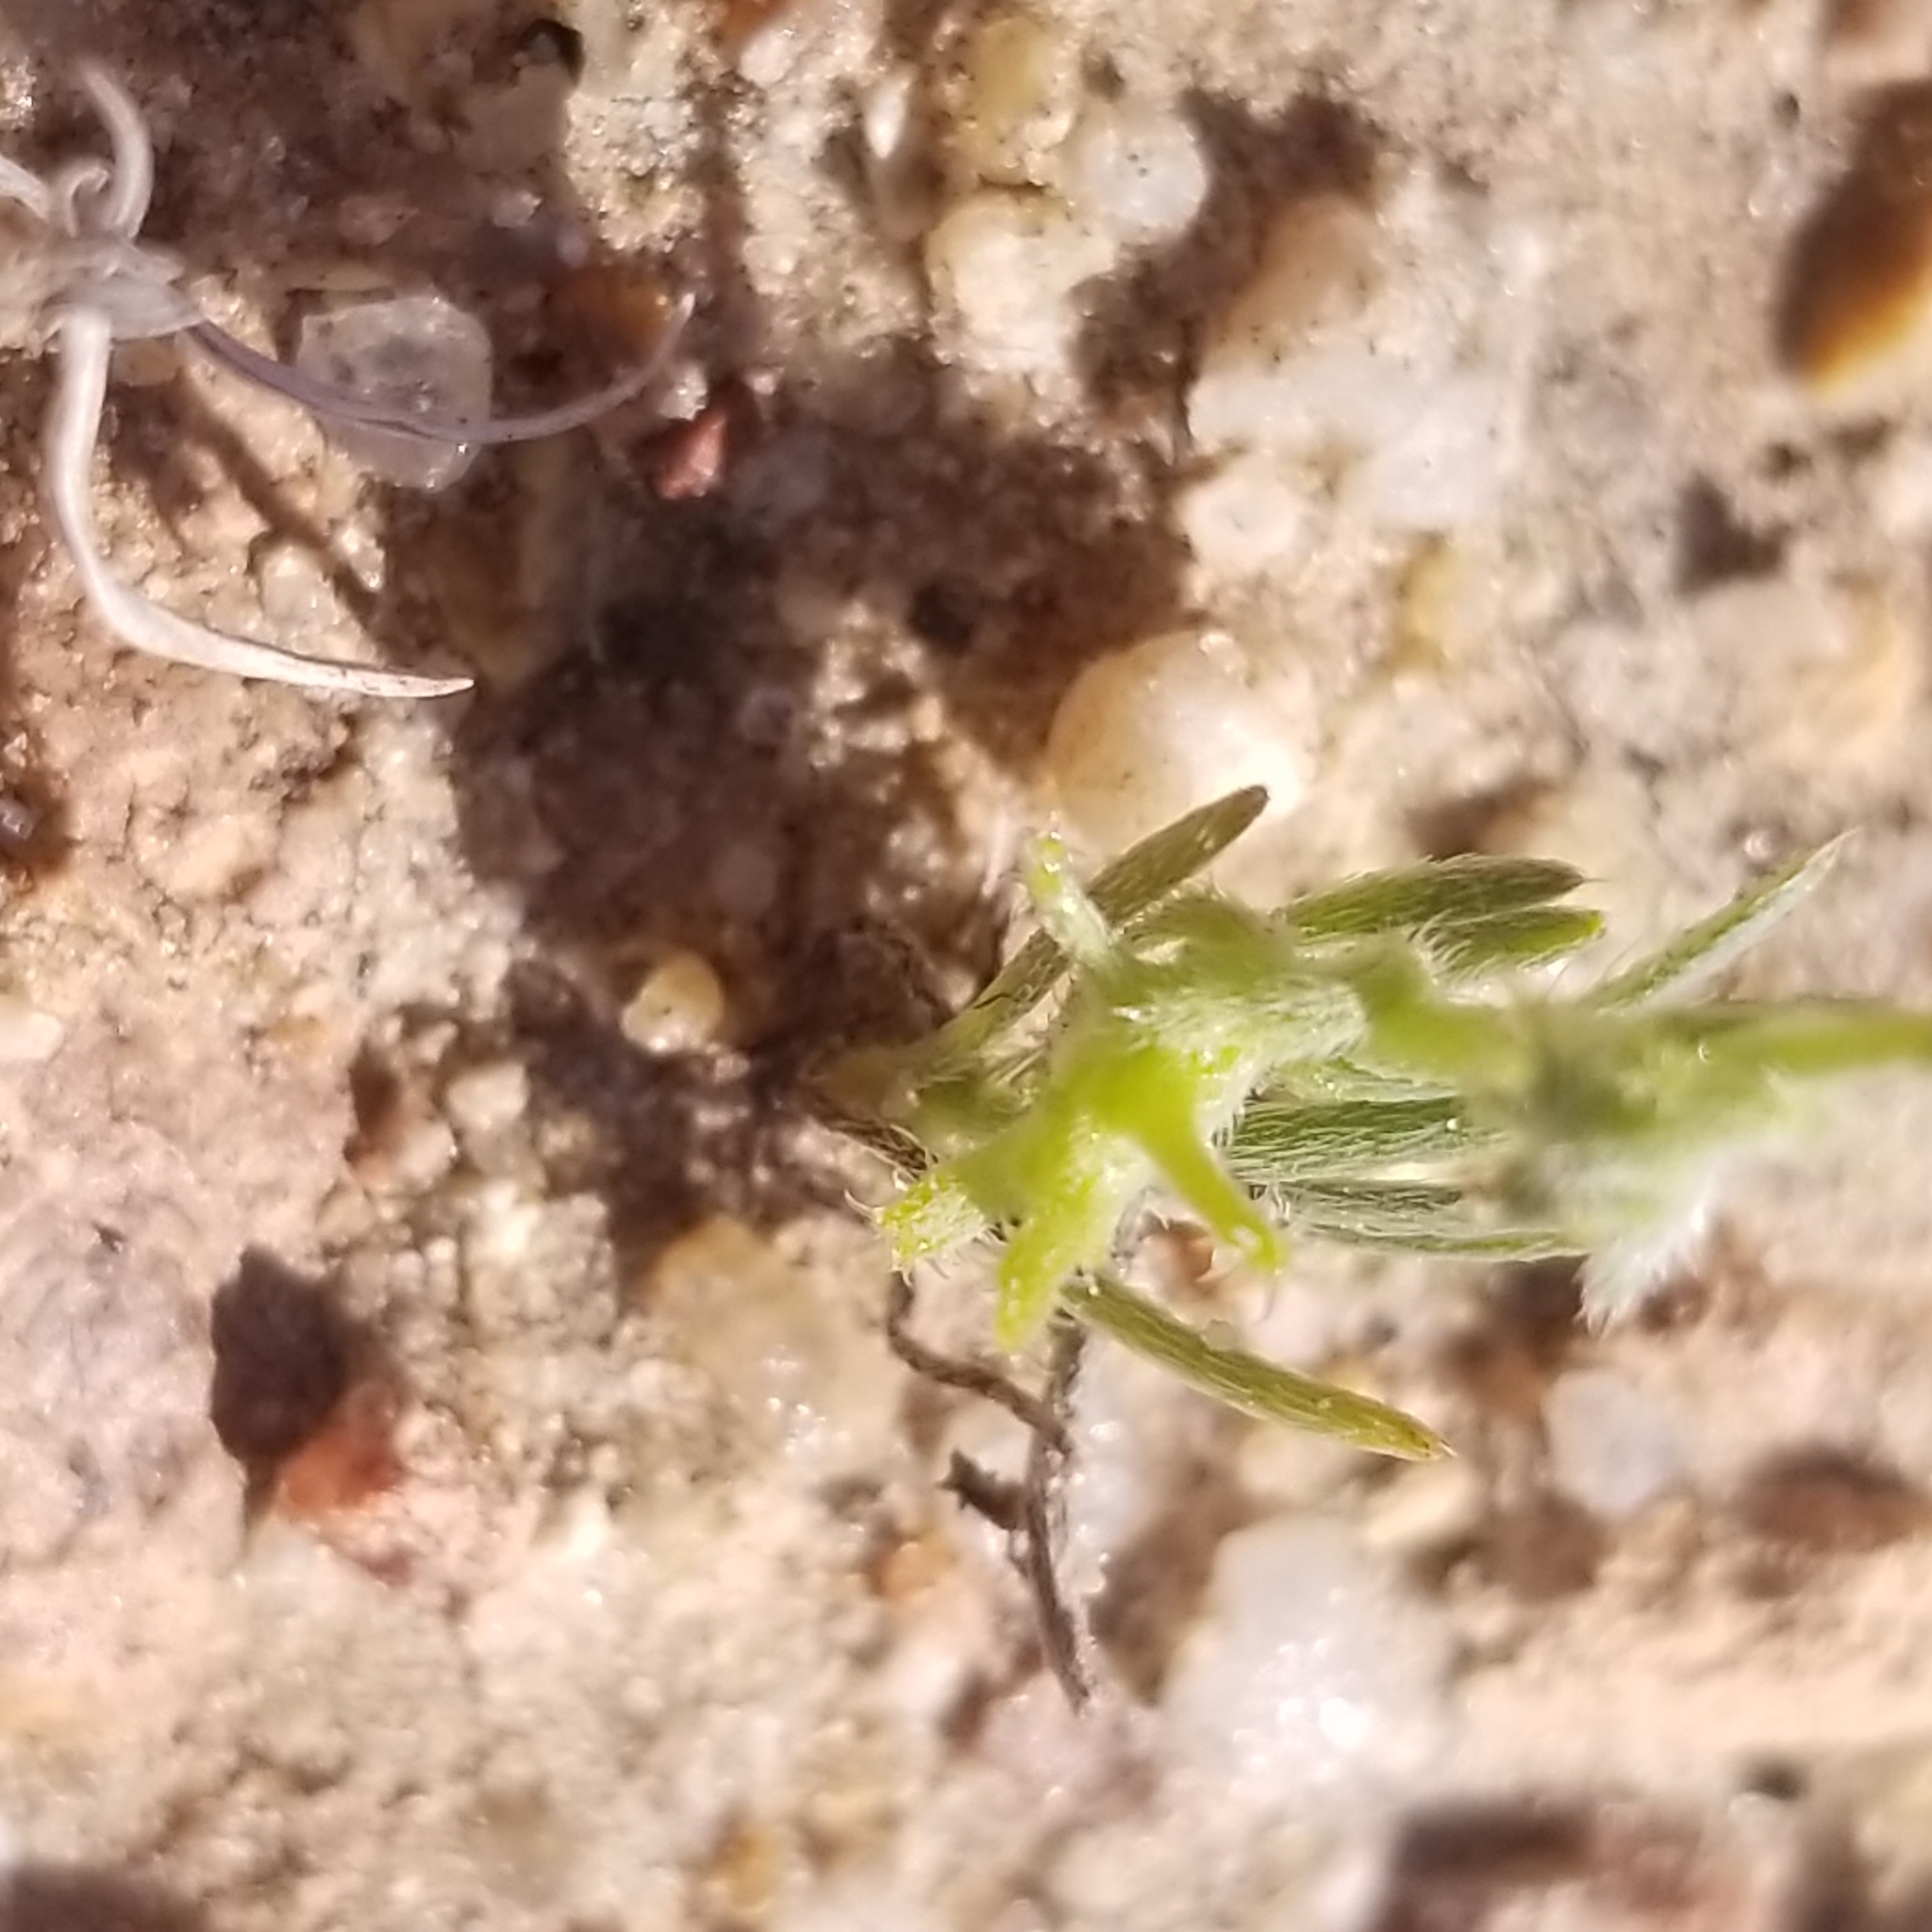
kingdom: Plantae
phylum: Tracheophyta
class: Magnoliopsida
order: Boraginales
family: Boraginaceae
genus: Harpagonella
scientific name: Harpagonella palmeri
